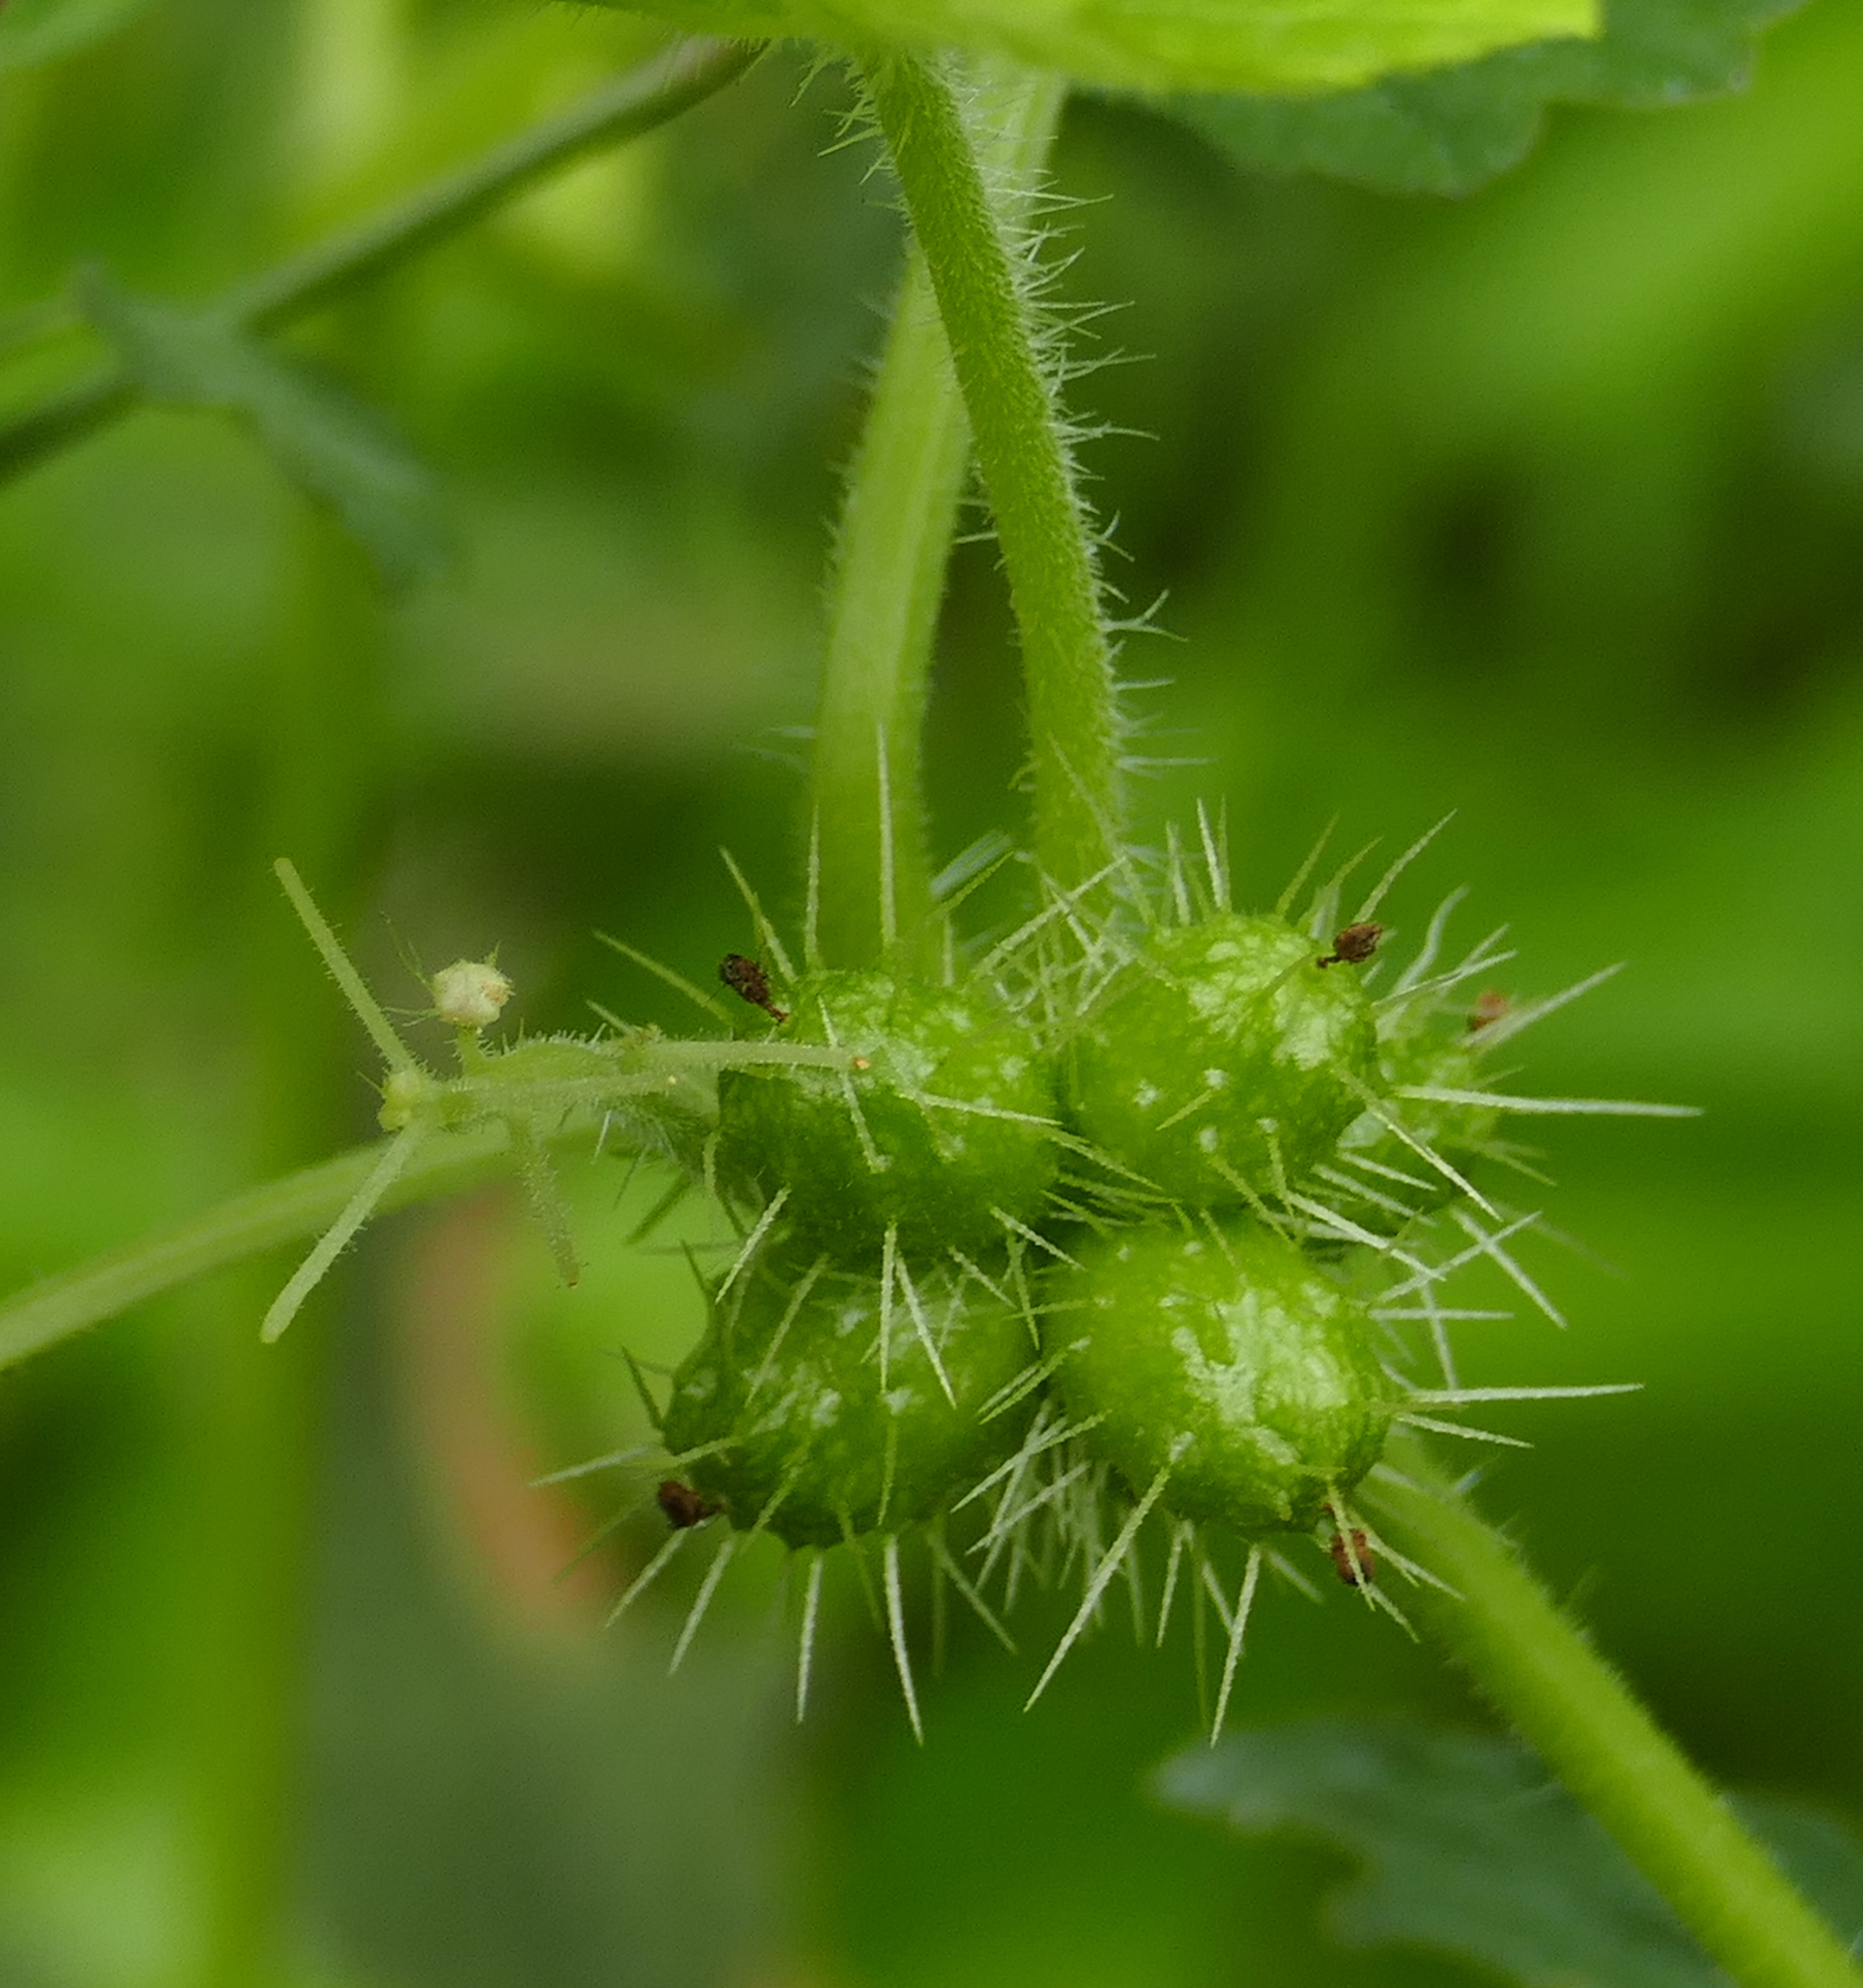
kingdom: Plantae
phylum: Tracheophyta
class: Magnoliopsida
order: Cucurbitales
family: Cucurbitaceae
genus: Sicyos
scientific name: Sicyos laciniatus
